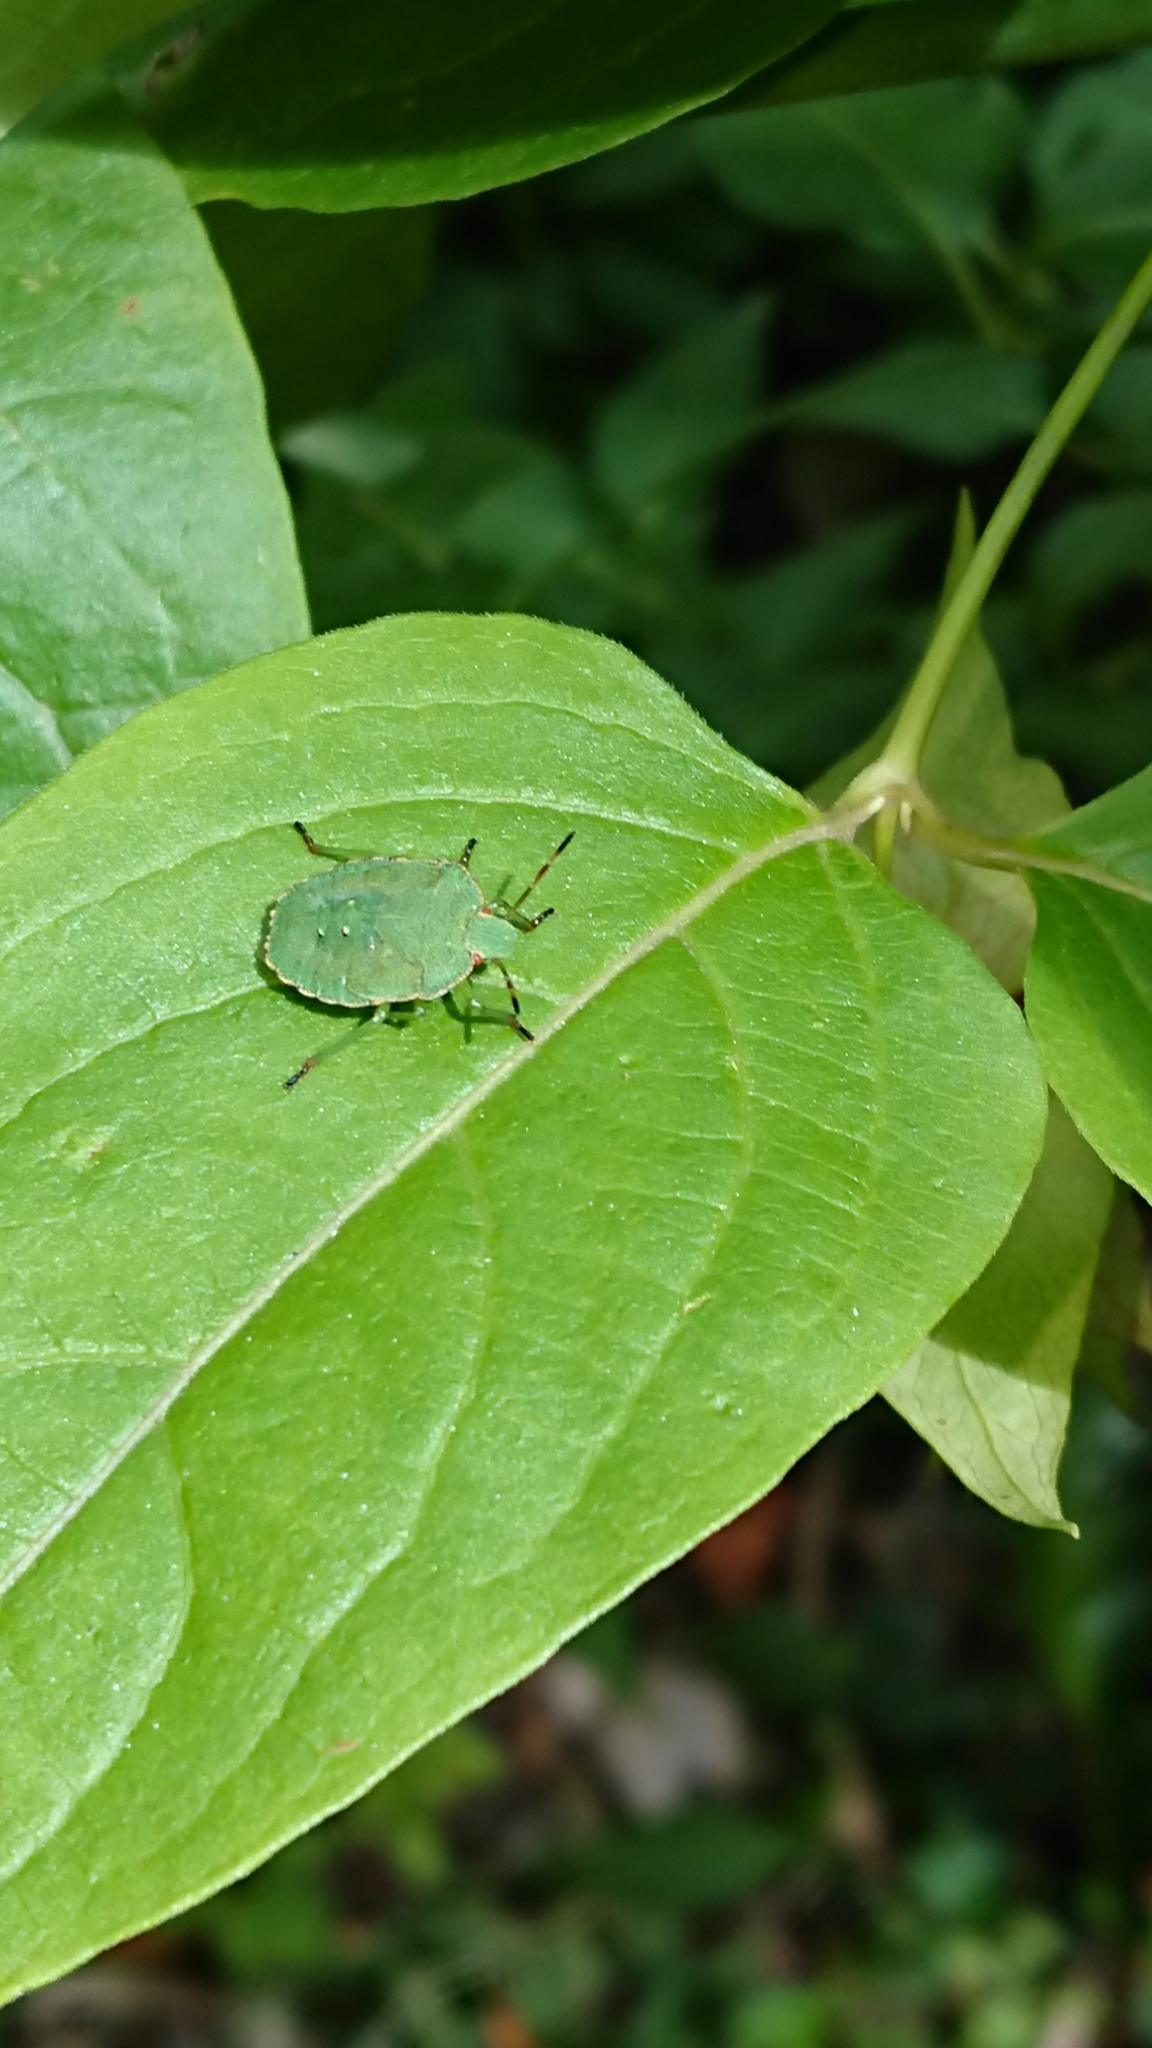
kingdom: Animalia
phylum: Arthropoda
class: Insecta
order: Hemiptera
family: Pentatomidae
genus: Palomena
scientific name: Palomena prasina
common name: Green shieldbug
